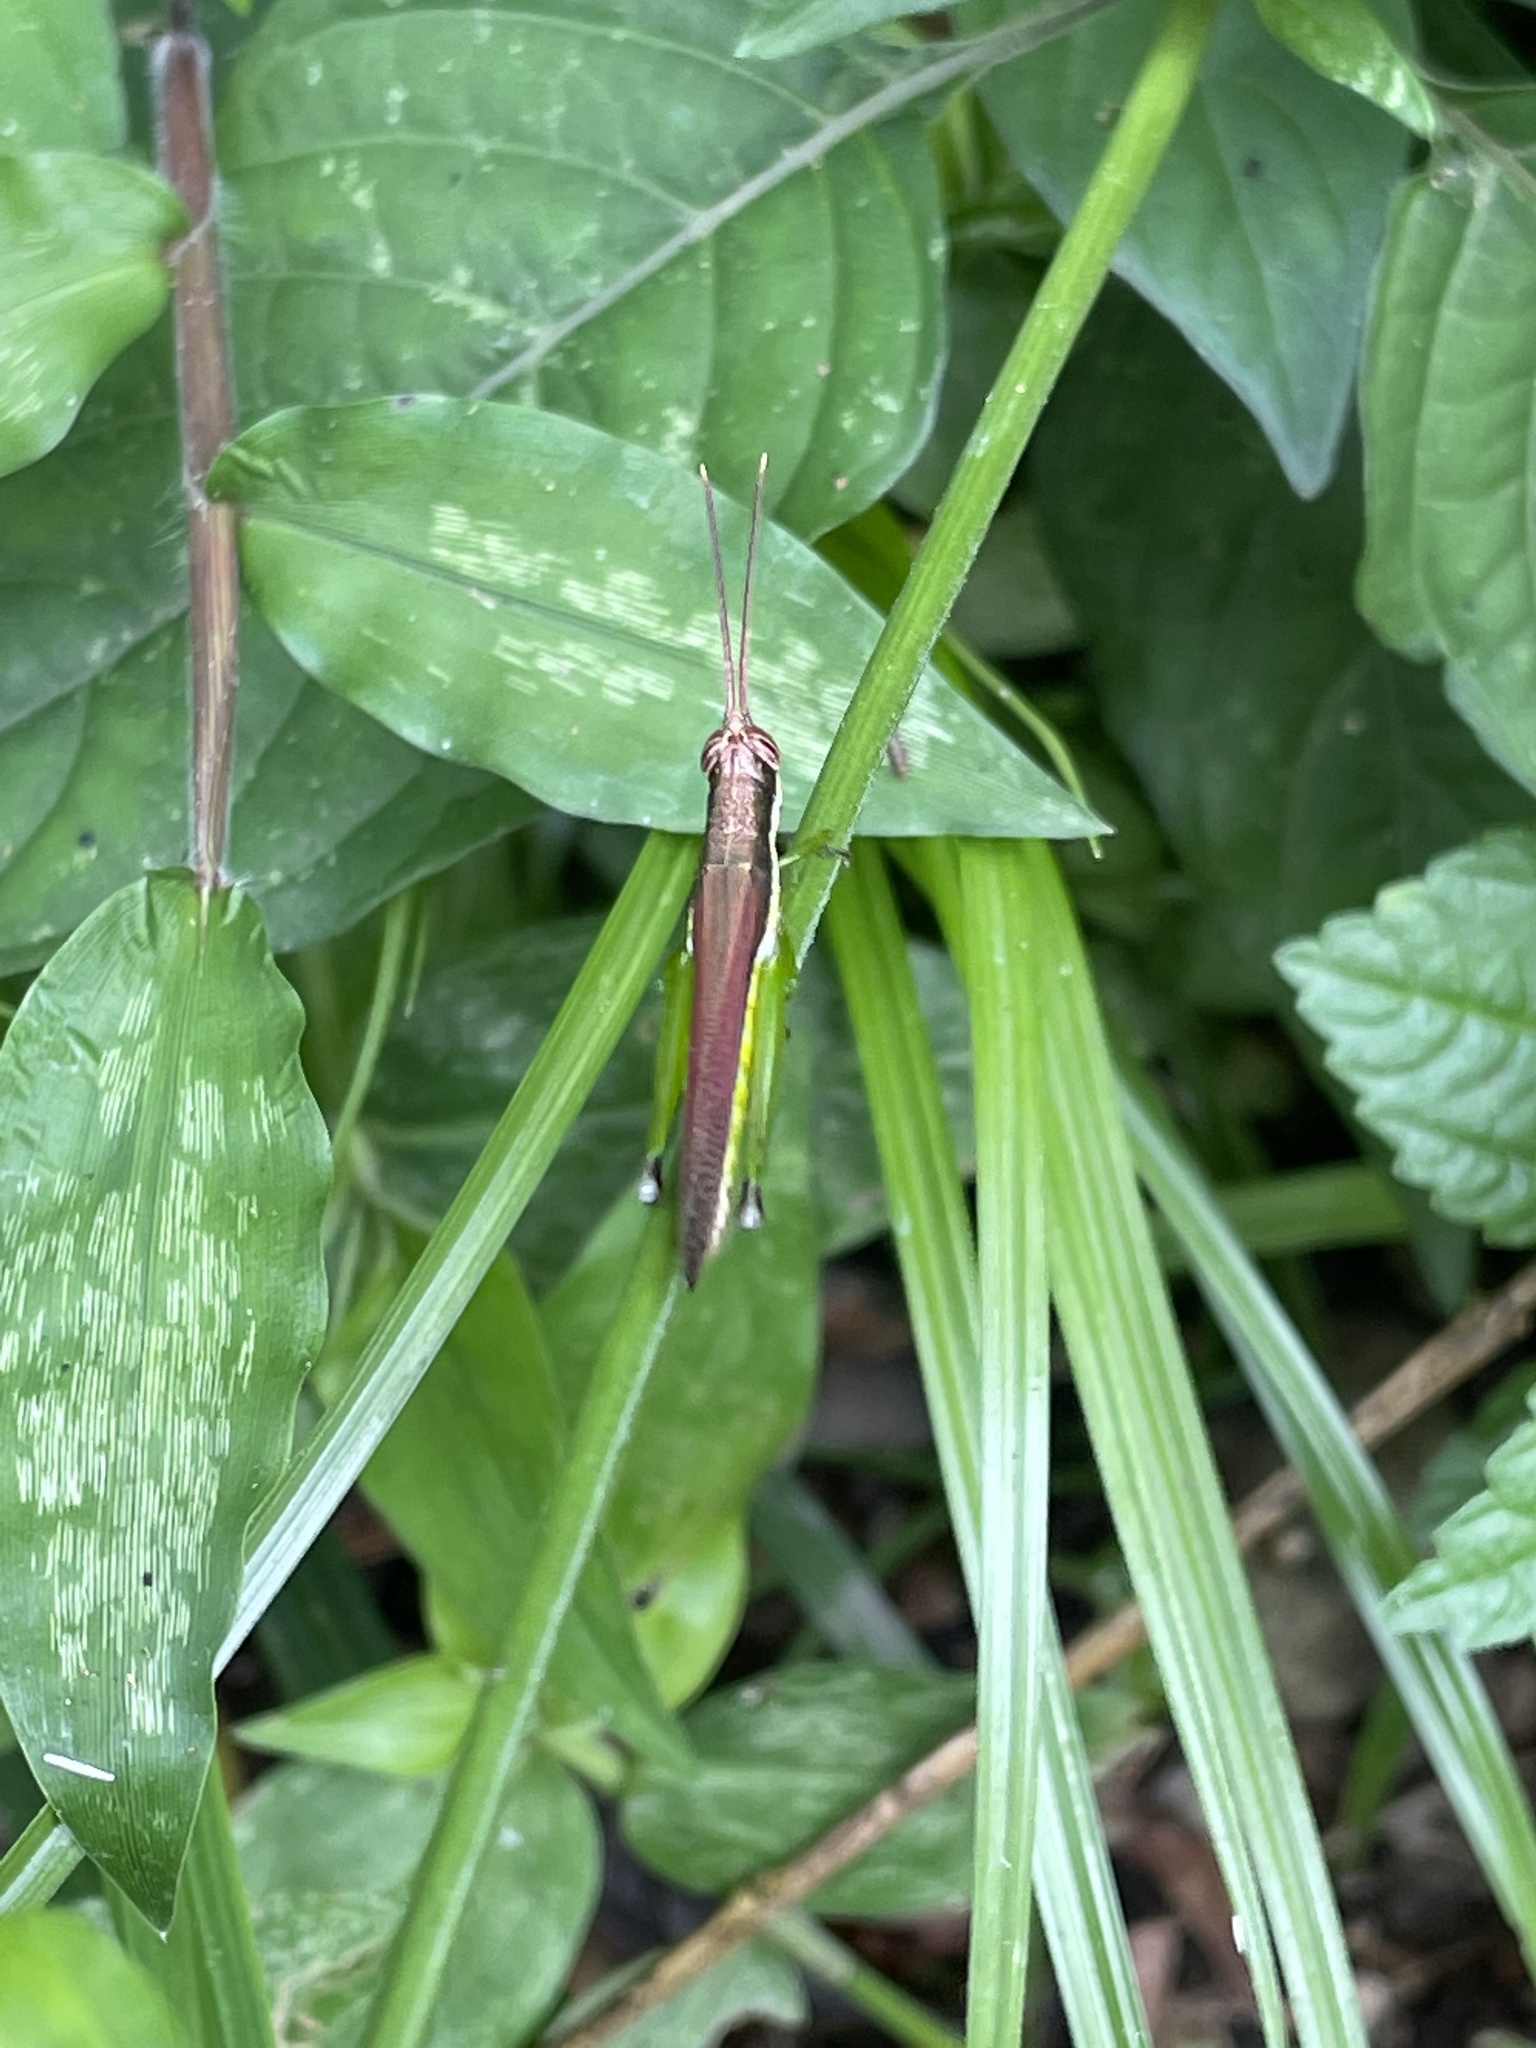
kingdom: Animalia
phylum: Arthropoda
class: Insecta
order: Orthoptera
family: Acrididae
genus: Stenopola
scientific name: Stenopola puncticeps
